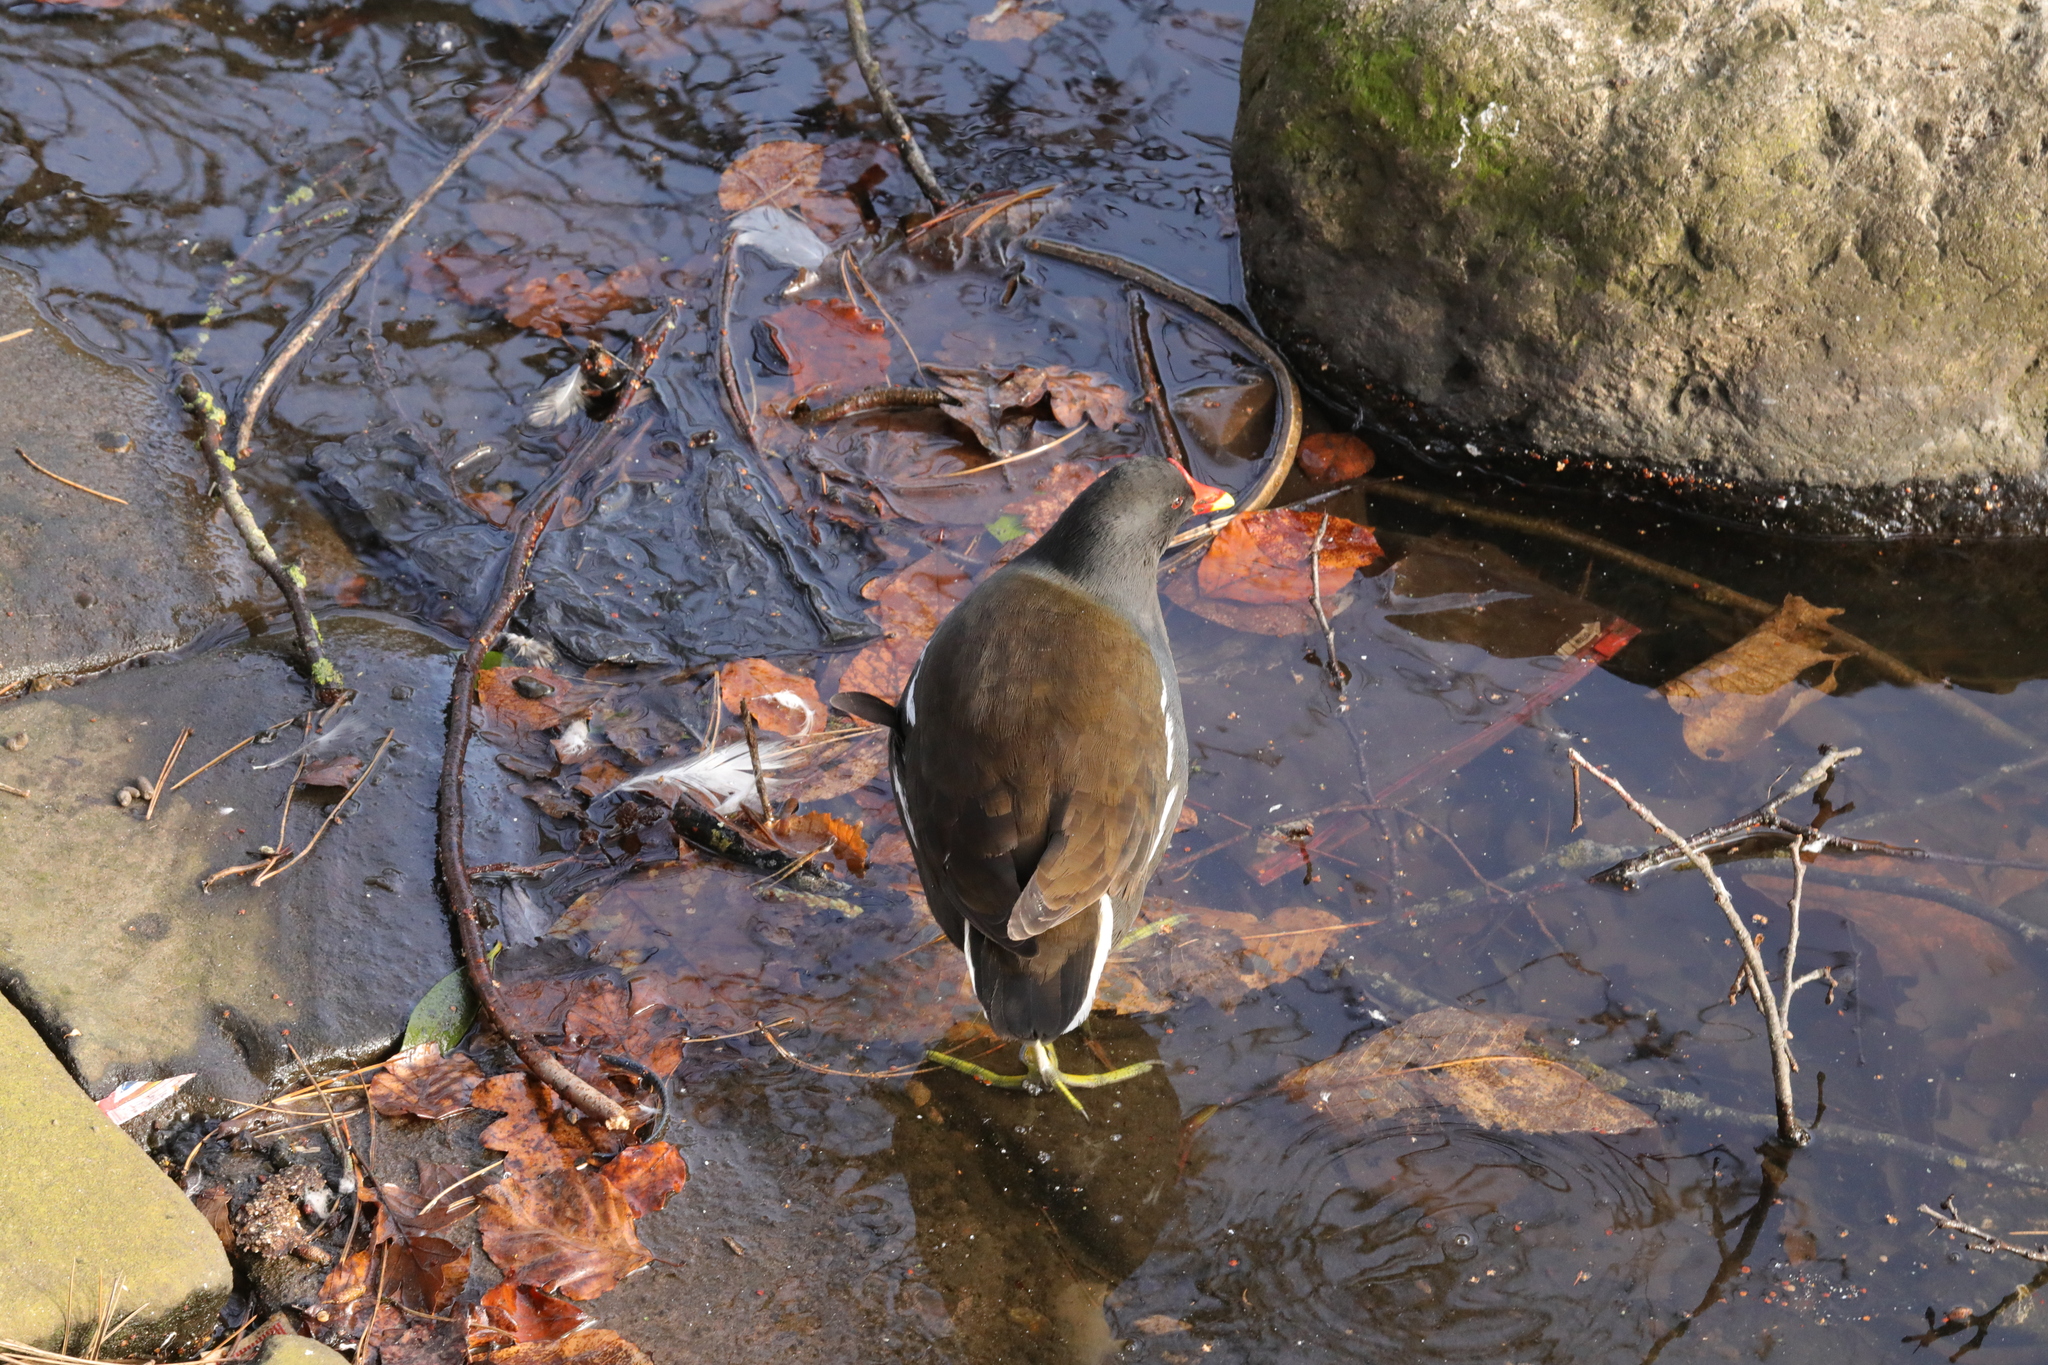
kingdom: Animalia
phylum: Chordata
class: Aves
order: Gruiformes
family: Rallidae
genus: Gallinula
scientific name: Gallinula chloropus
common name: Common moorhen
